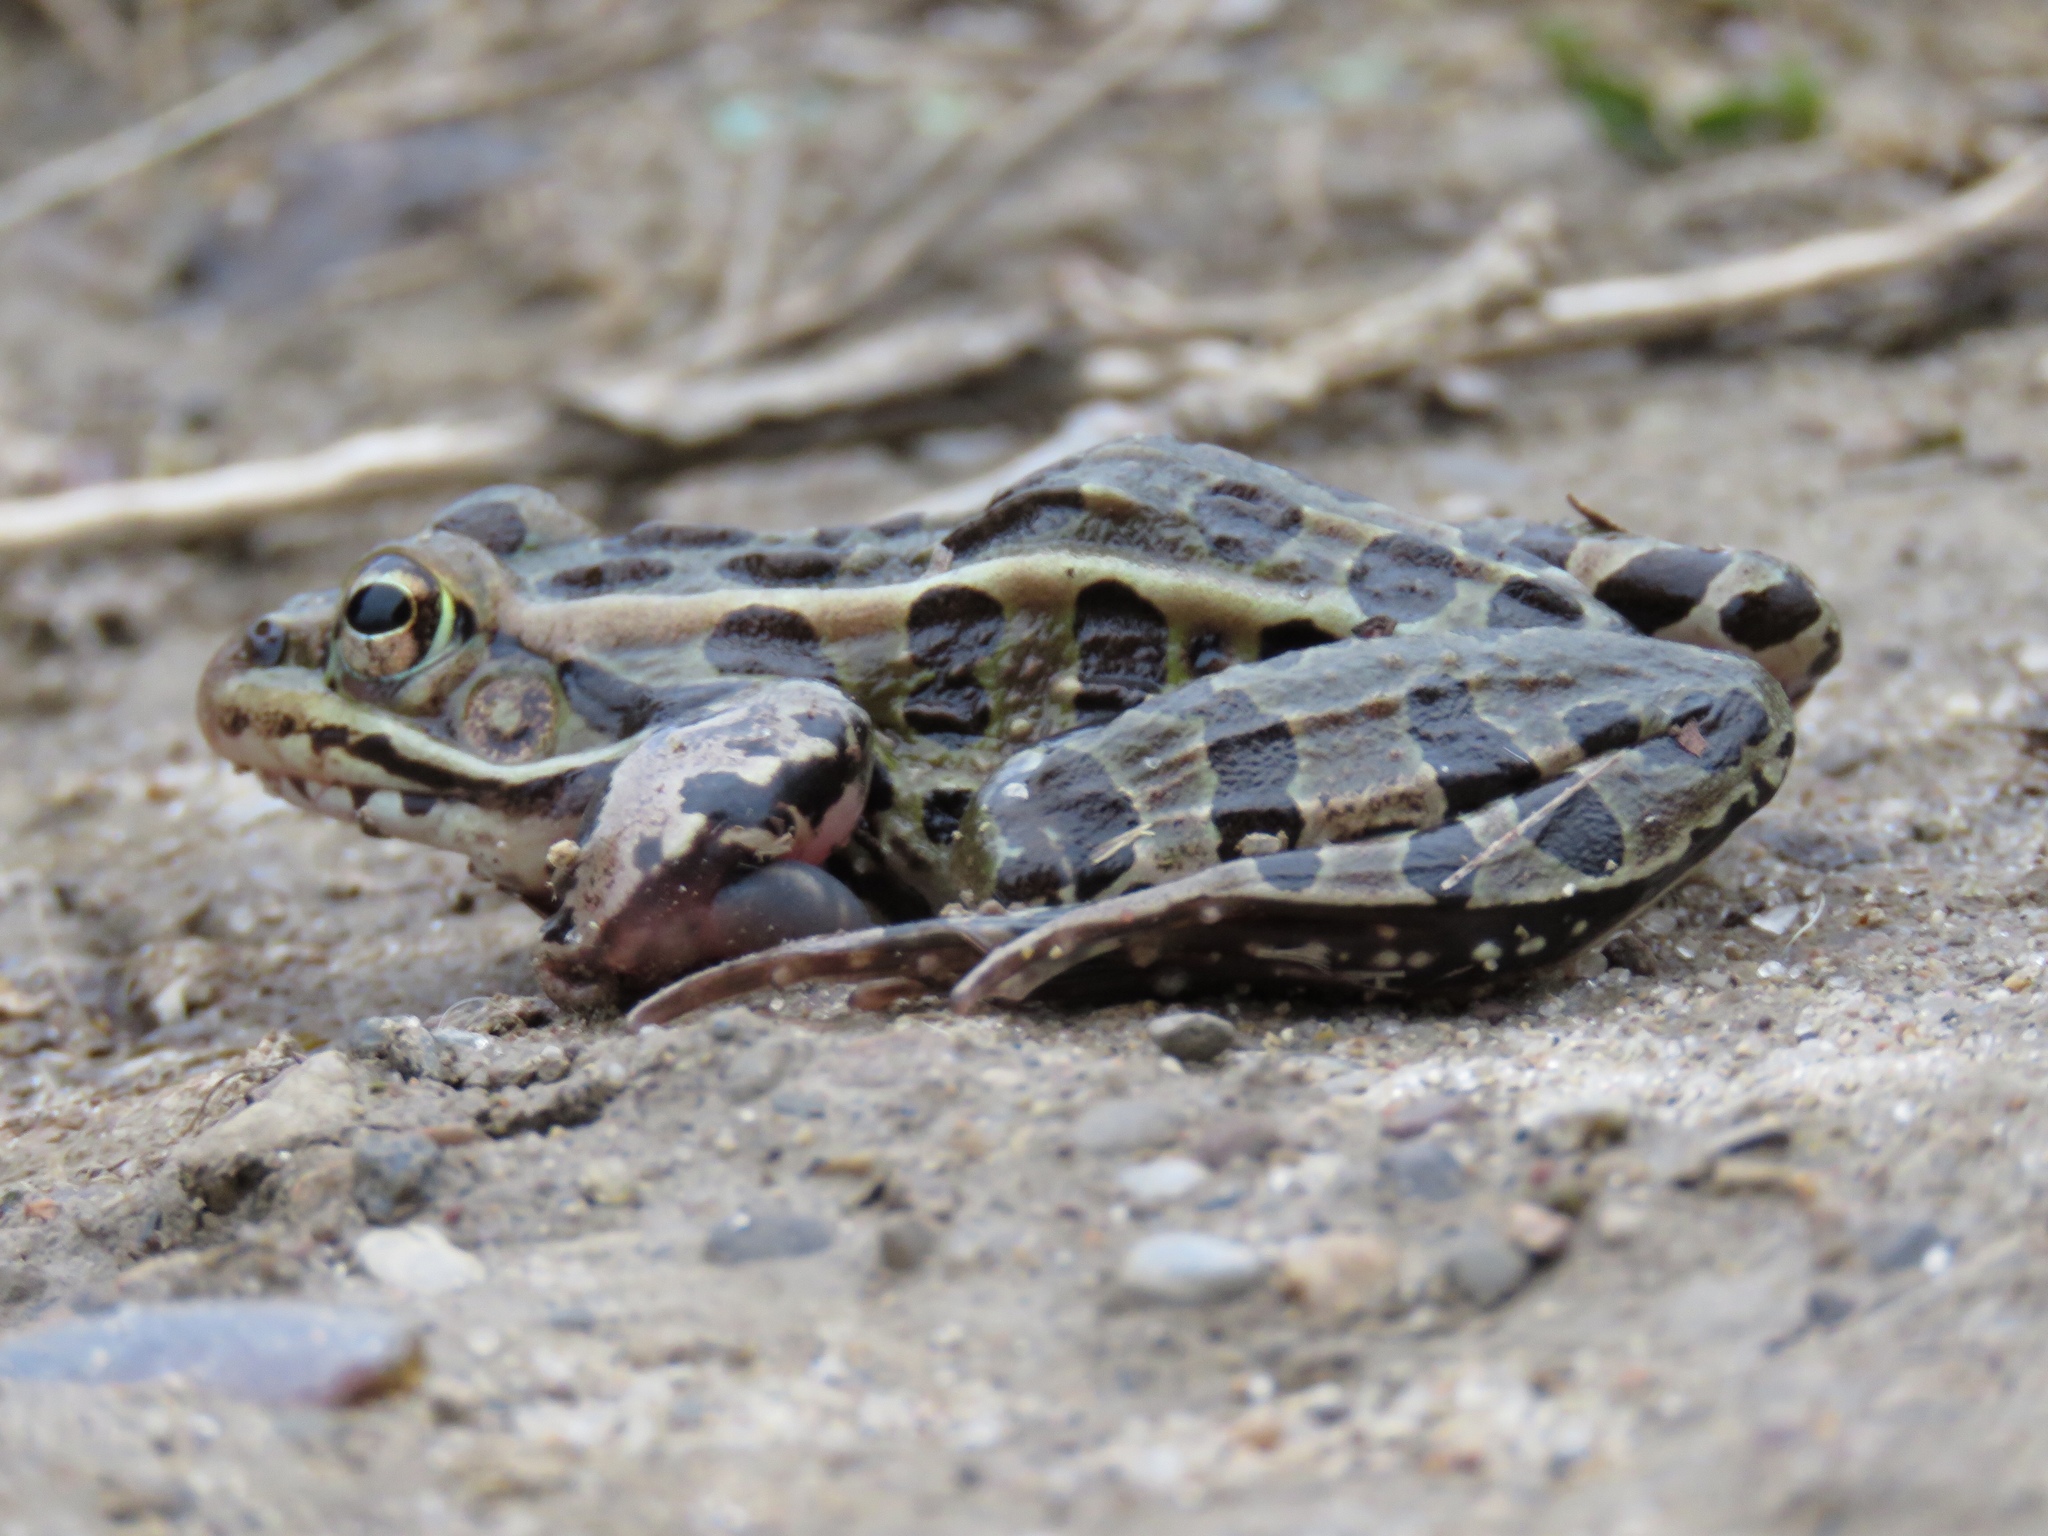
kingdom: Animalia
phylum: Chordata
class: Amphibia
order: Anura
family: Ranidae
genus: Lithobates
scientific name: Lithobates pipiens
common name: Northern leopard frog
